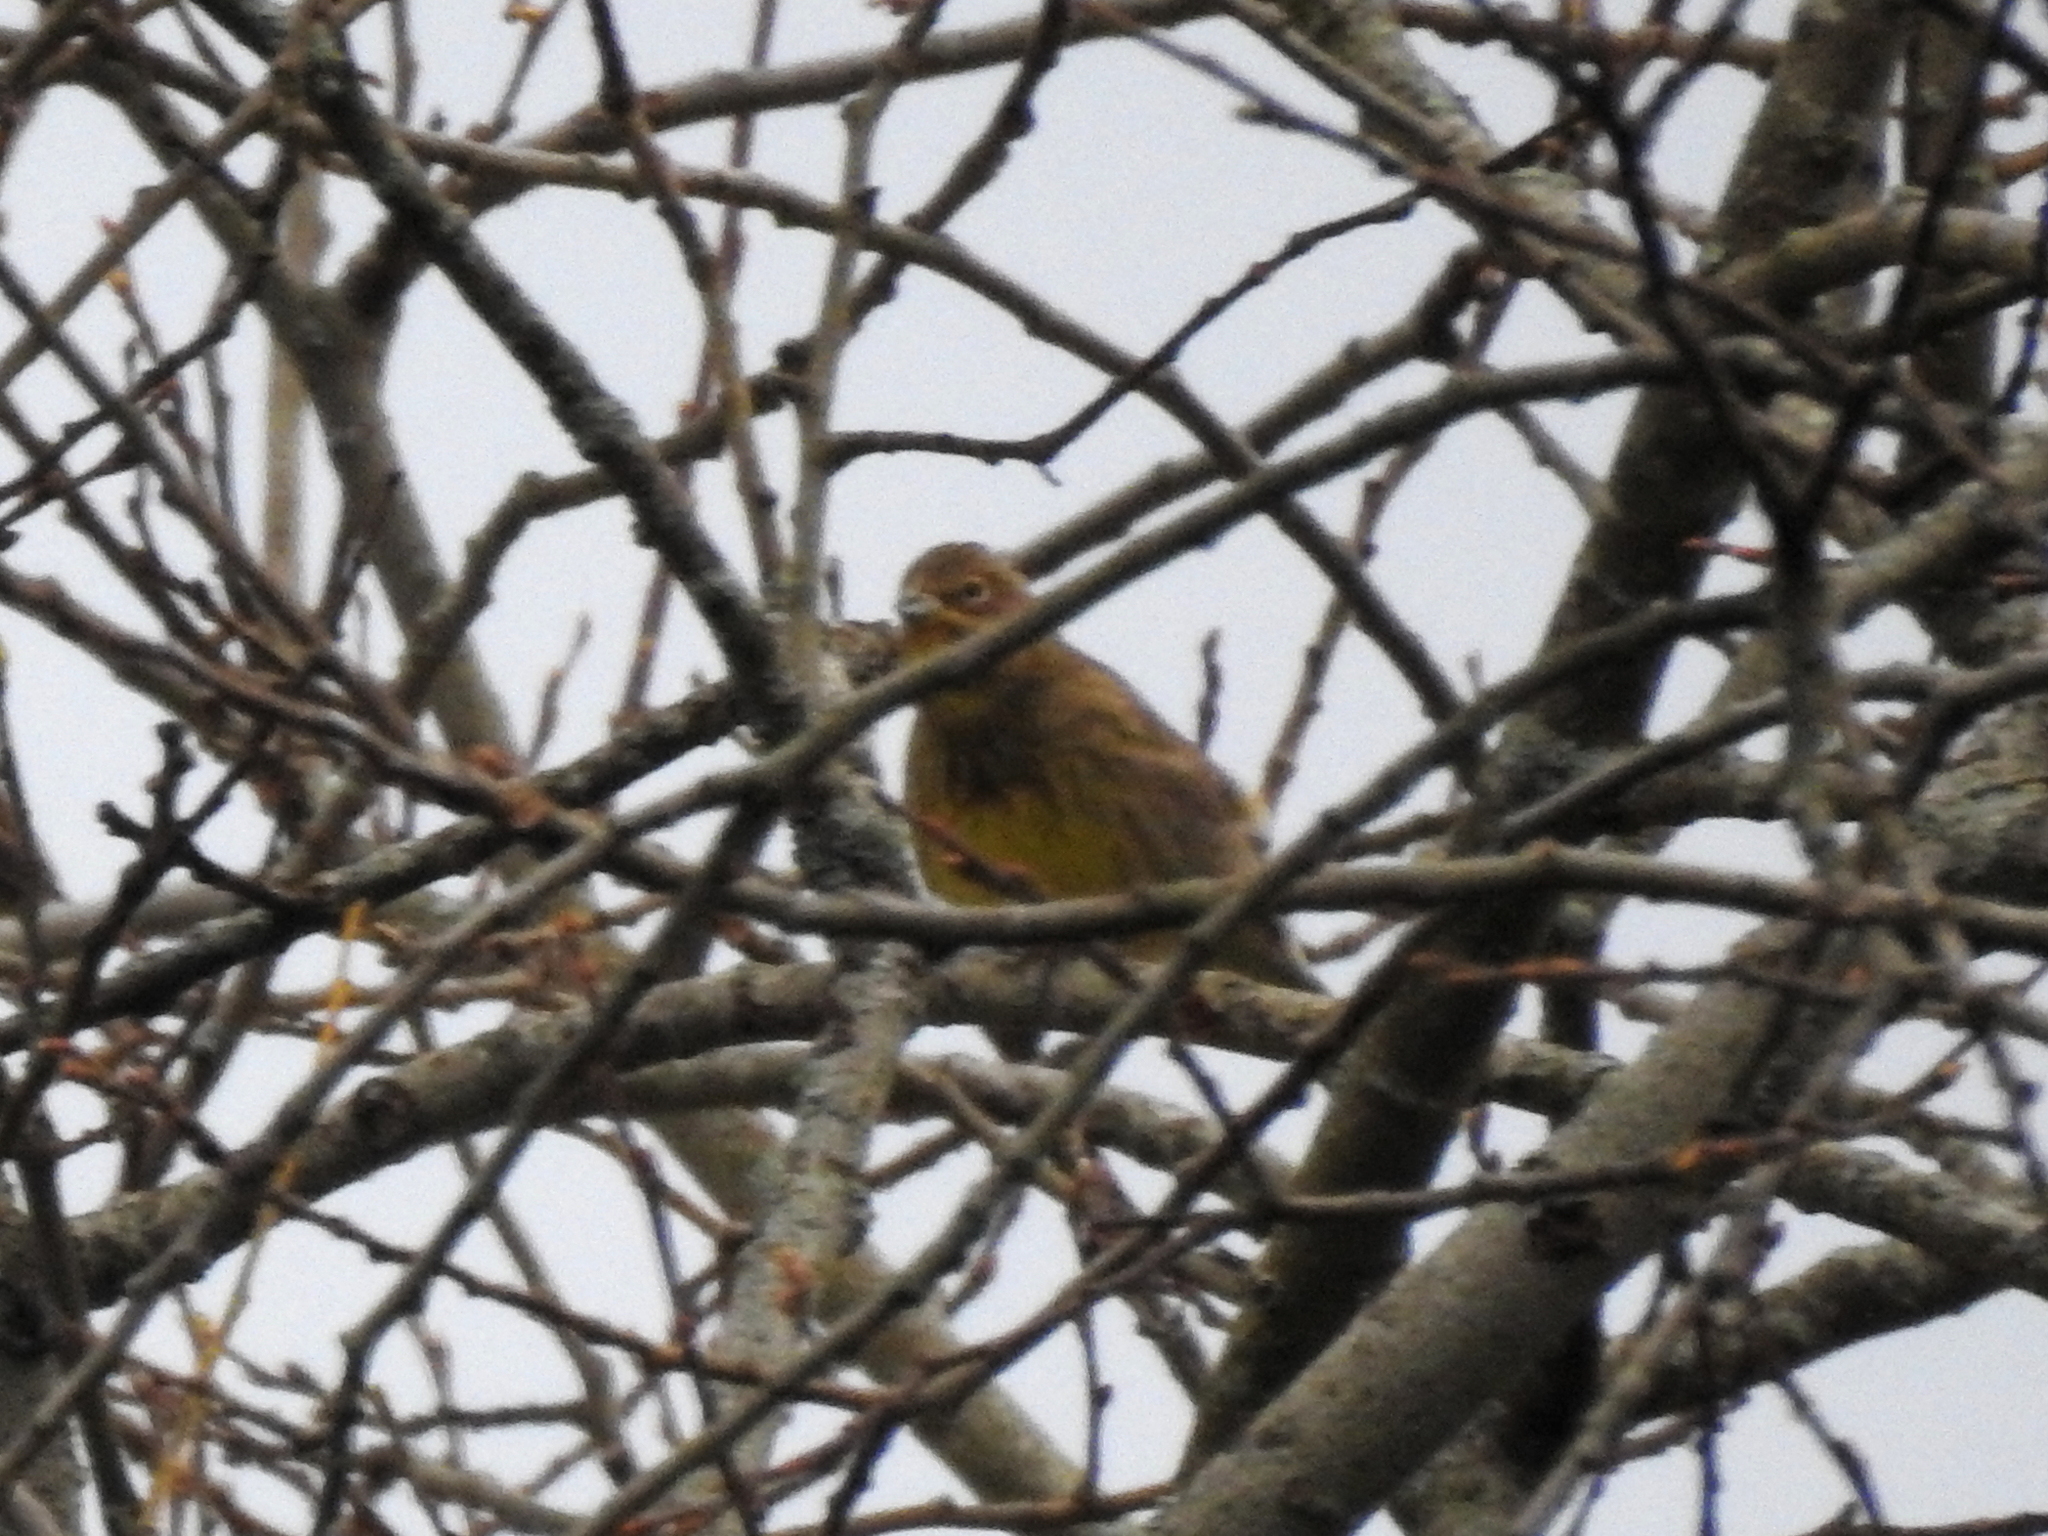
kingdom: Animalia
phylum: Chordata
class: Aves
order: Passeriformes
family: Emberizidae
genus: Emberiza
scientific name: Emberiza citrinella
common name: Yellowhammer
